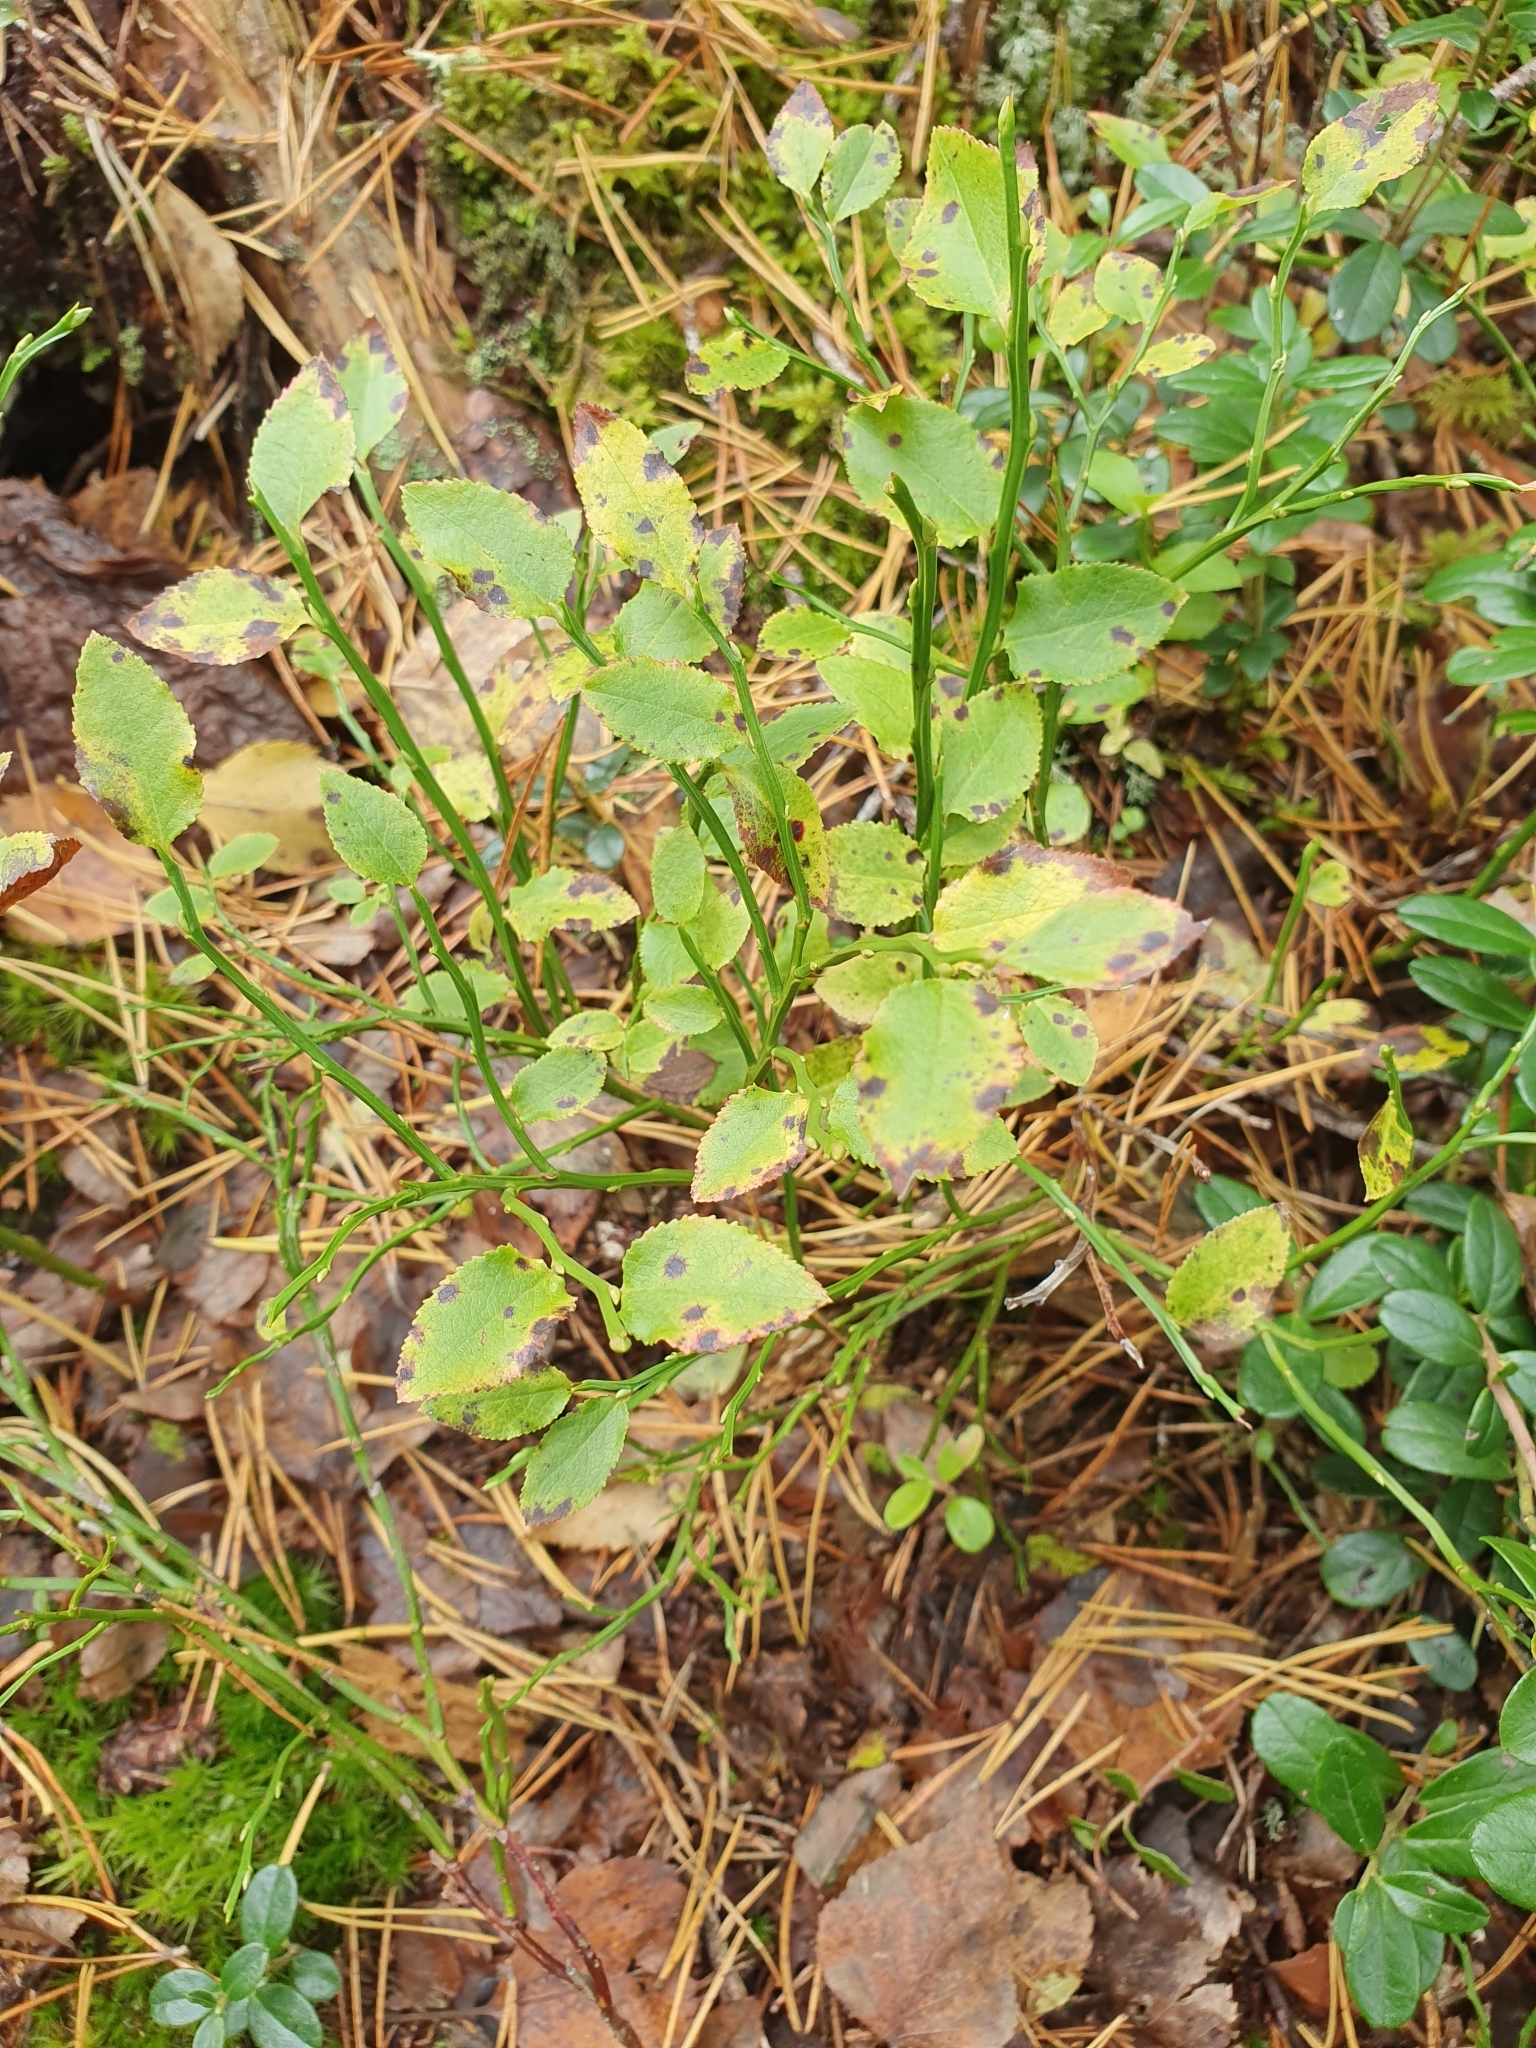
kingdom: Plantae
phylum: Tracheophyta
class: Magnoliopsida
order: Ericales
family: Ericaceae
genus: Vaccinium
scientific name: Vaccinium myrtillus
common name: Bilberry
